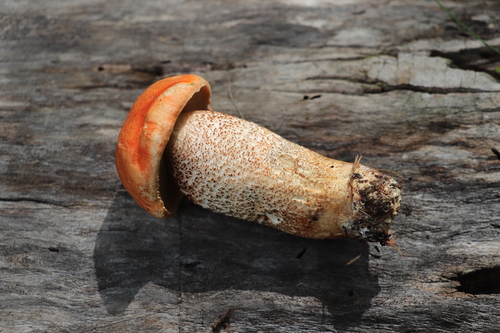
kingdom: Fungi
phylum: Basidiomycota
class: Agaricomycetes
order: Boletales
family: Boletaceae
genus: Leccinum
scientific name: Leccinum aurantiacum
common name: Orange bolete
